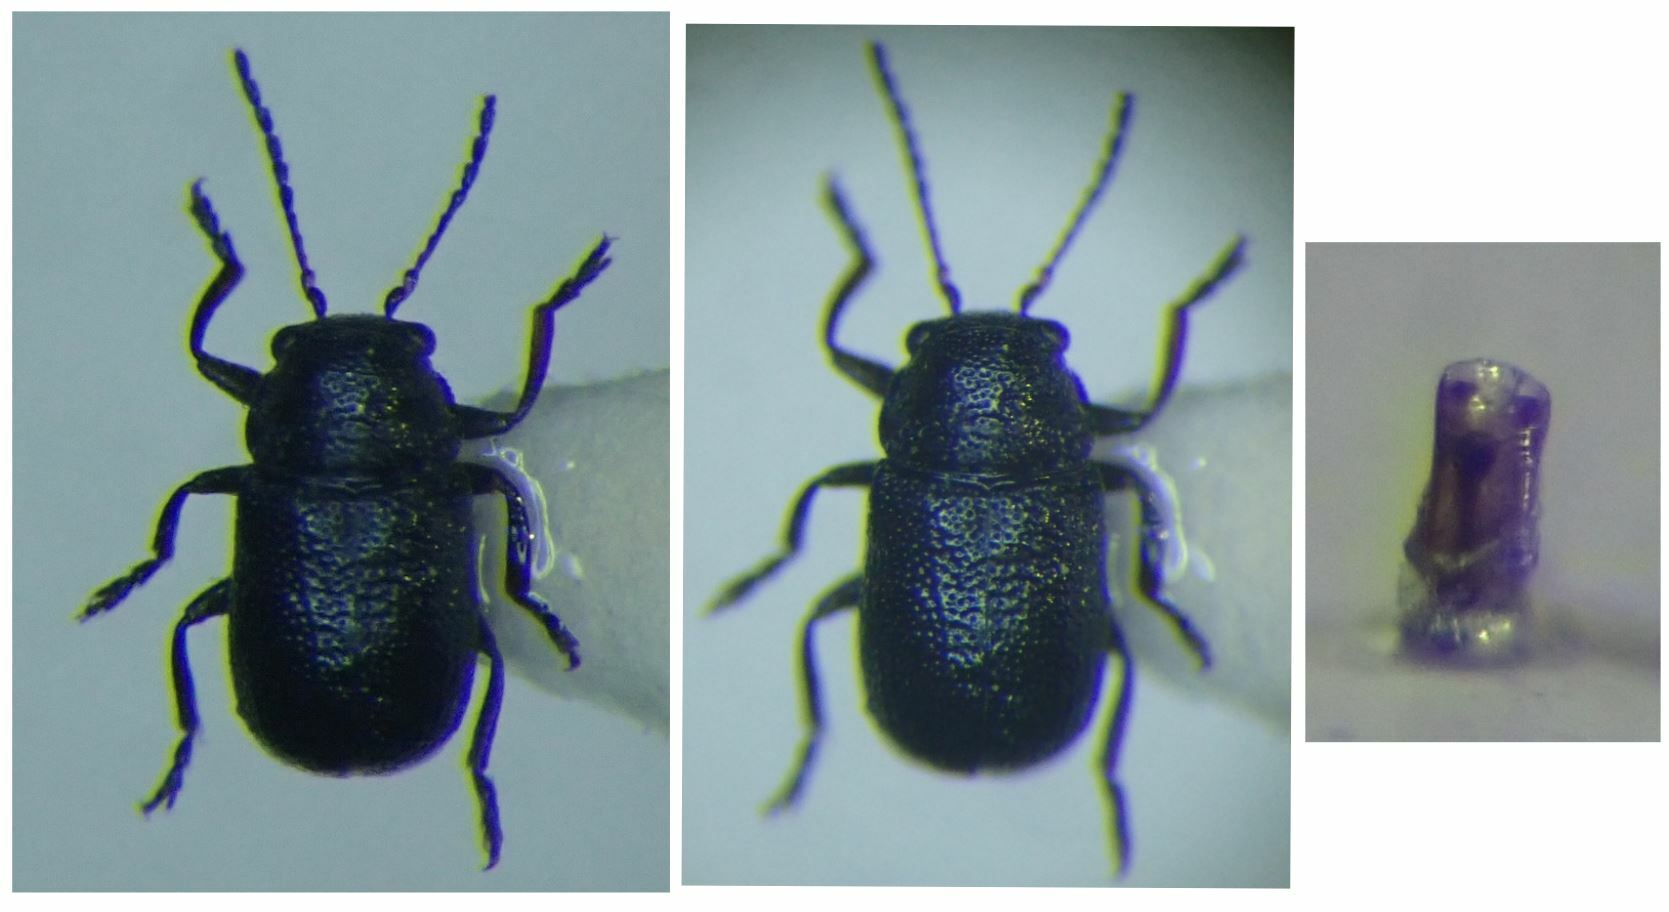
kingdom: Animalia
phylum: Arthropoda
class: Insecta
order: Coleoptera
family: Chrysomelidae
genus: Stylosomus
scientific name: Stylosomus ilicicola
